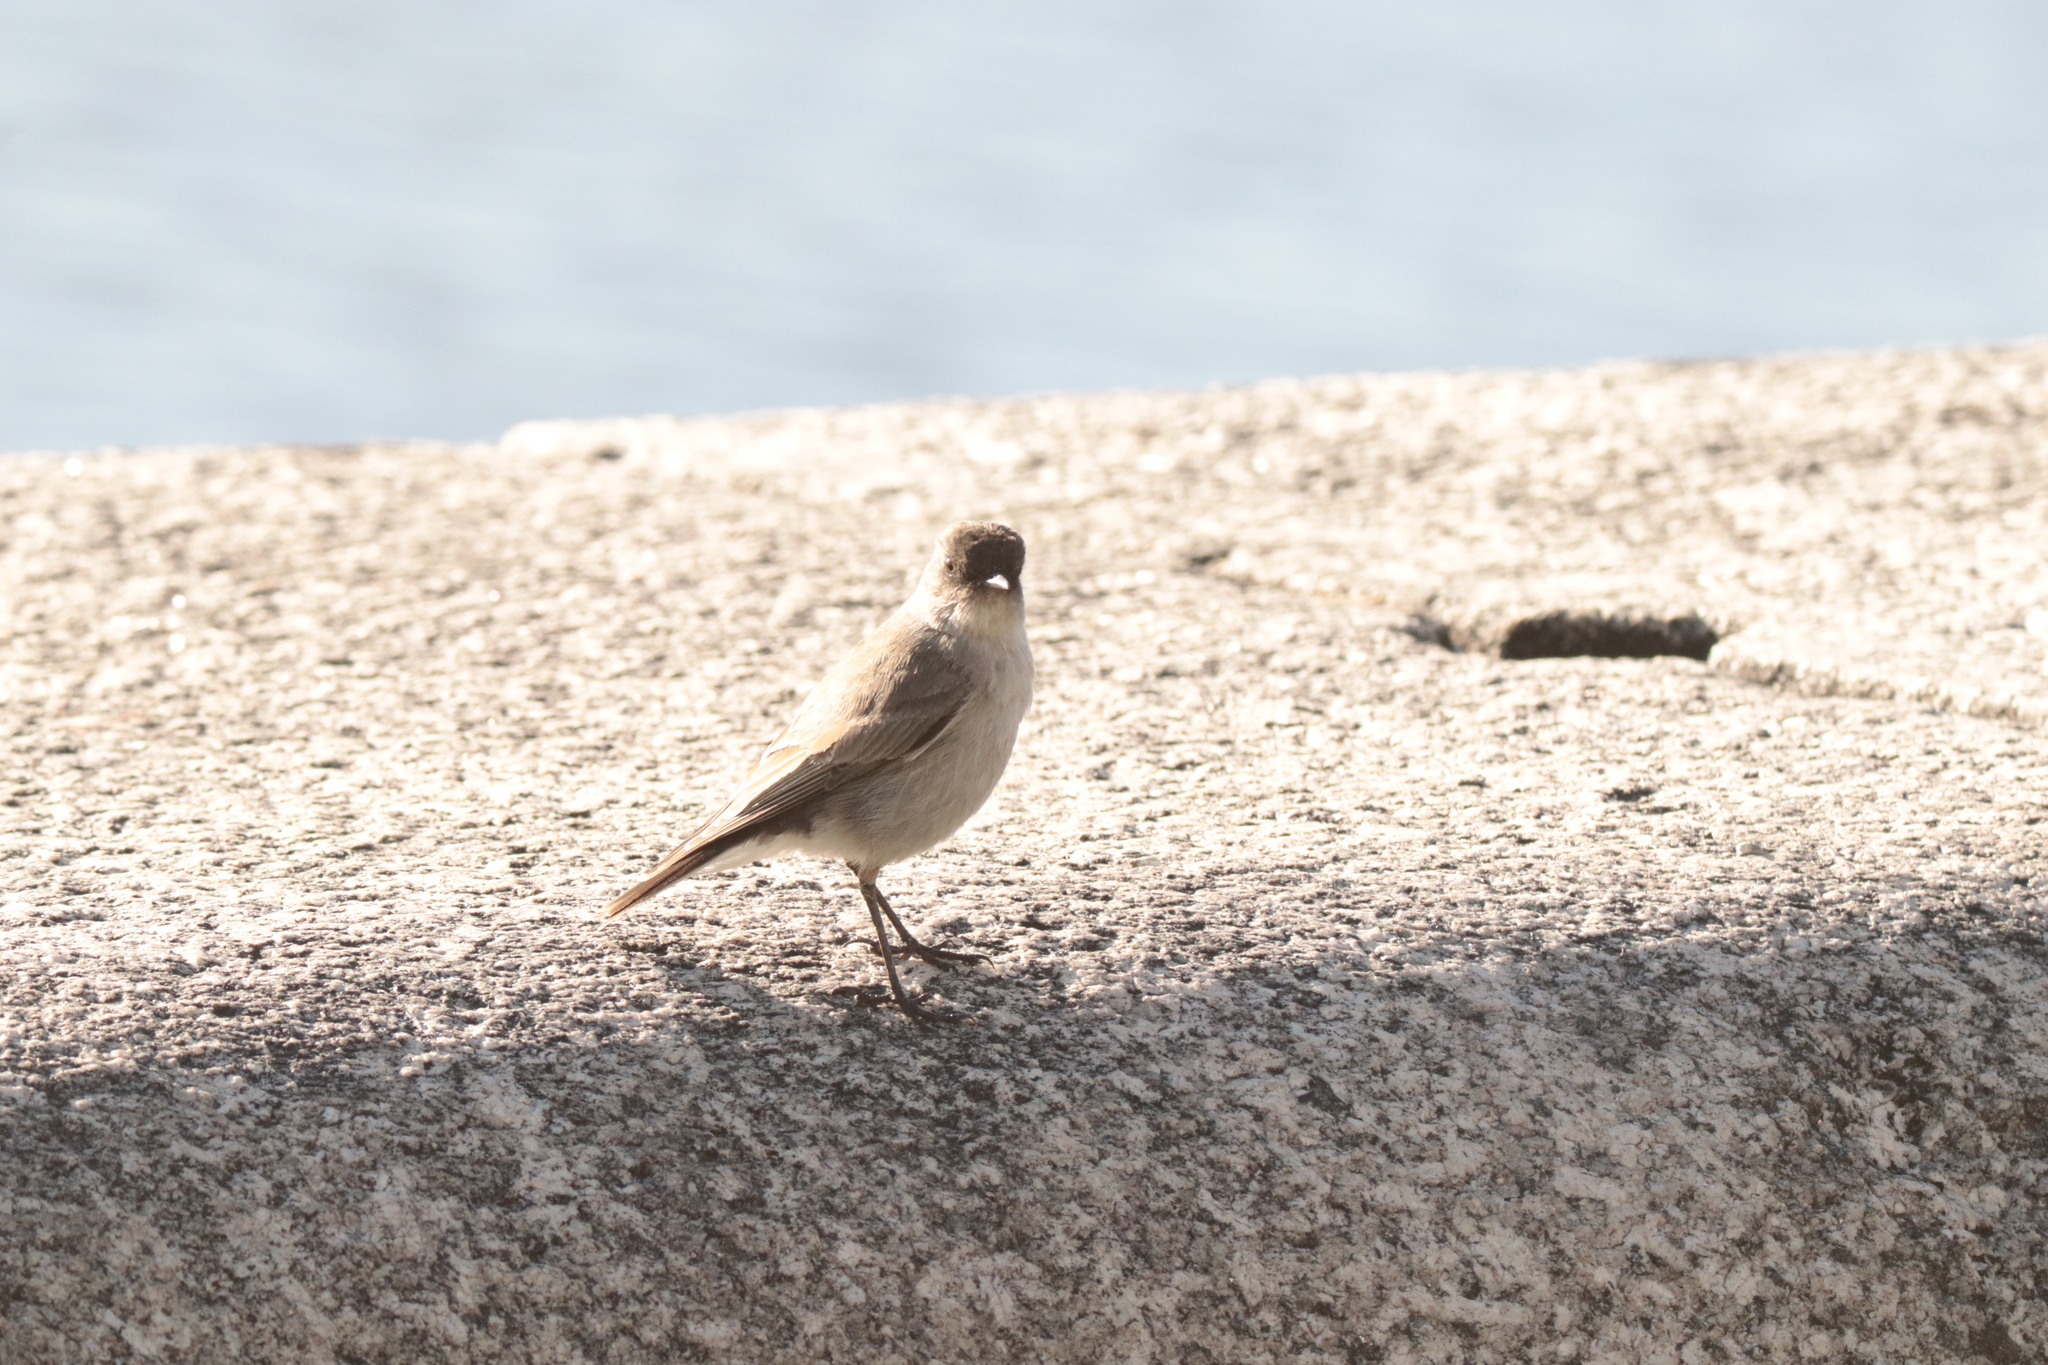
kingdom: Animalia
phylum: Chordata
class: Aves
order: Passeriformes
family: Tyrannidae
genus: Muscisaxicola
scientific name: Muscisaxicola maclovianus
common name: Dark-faced ground tyrant
